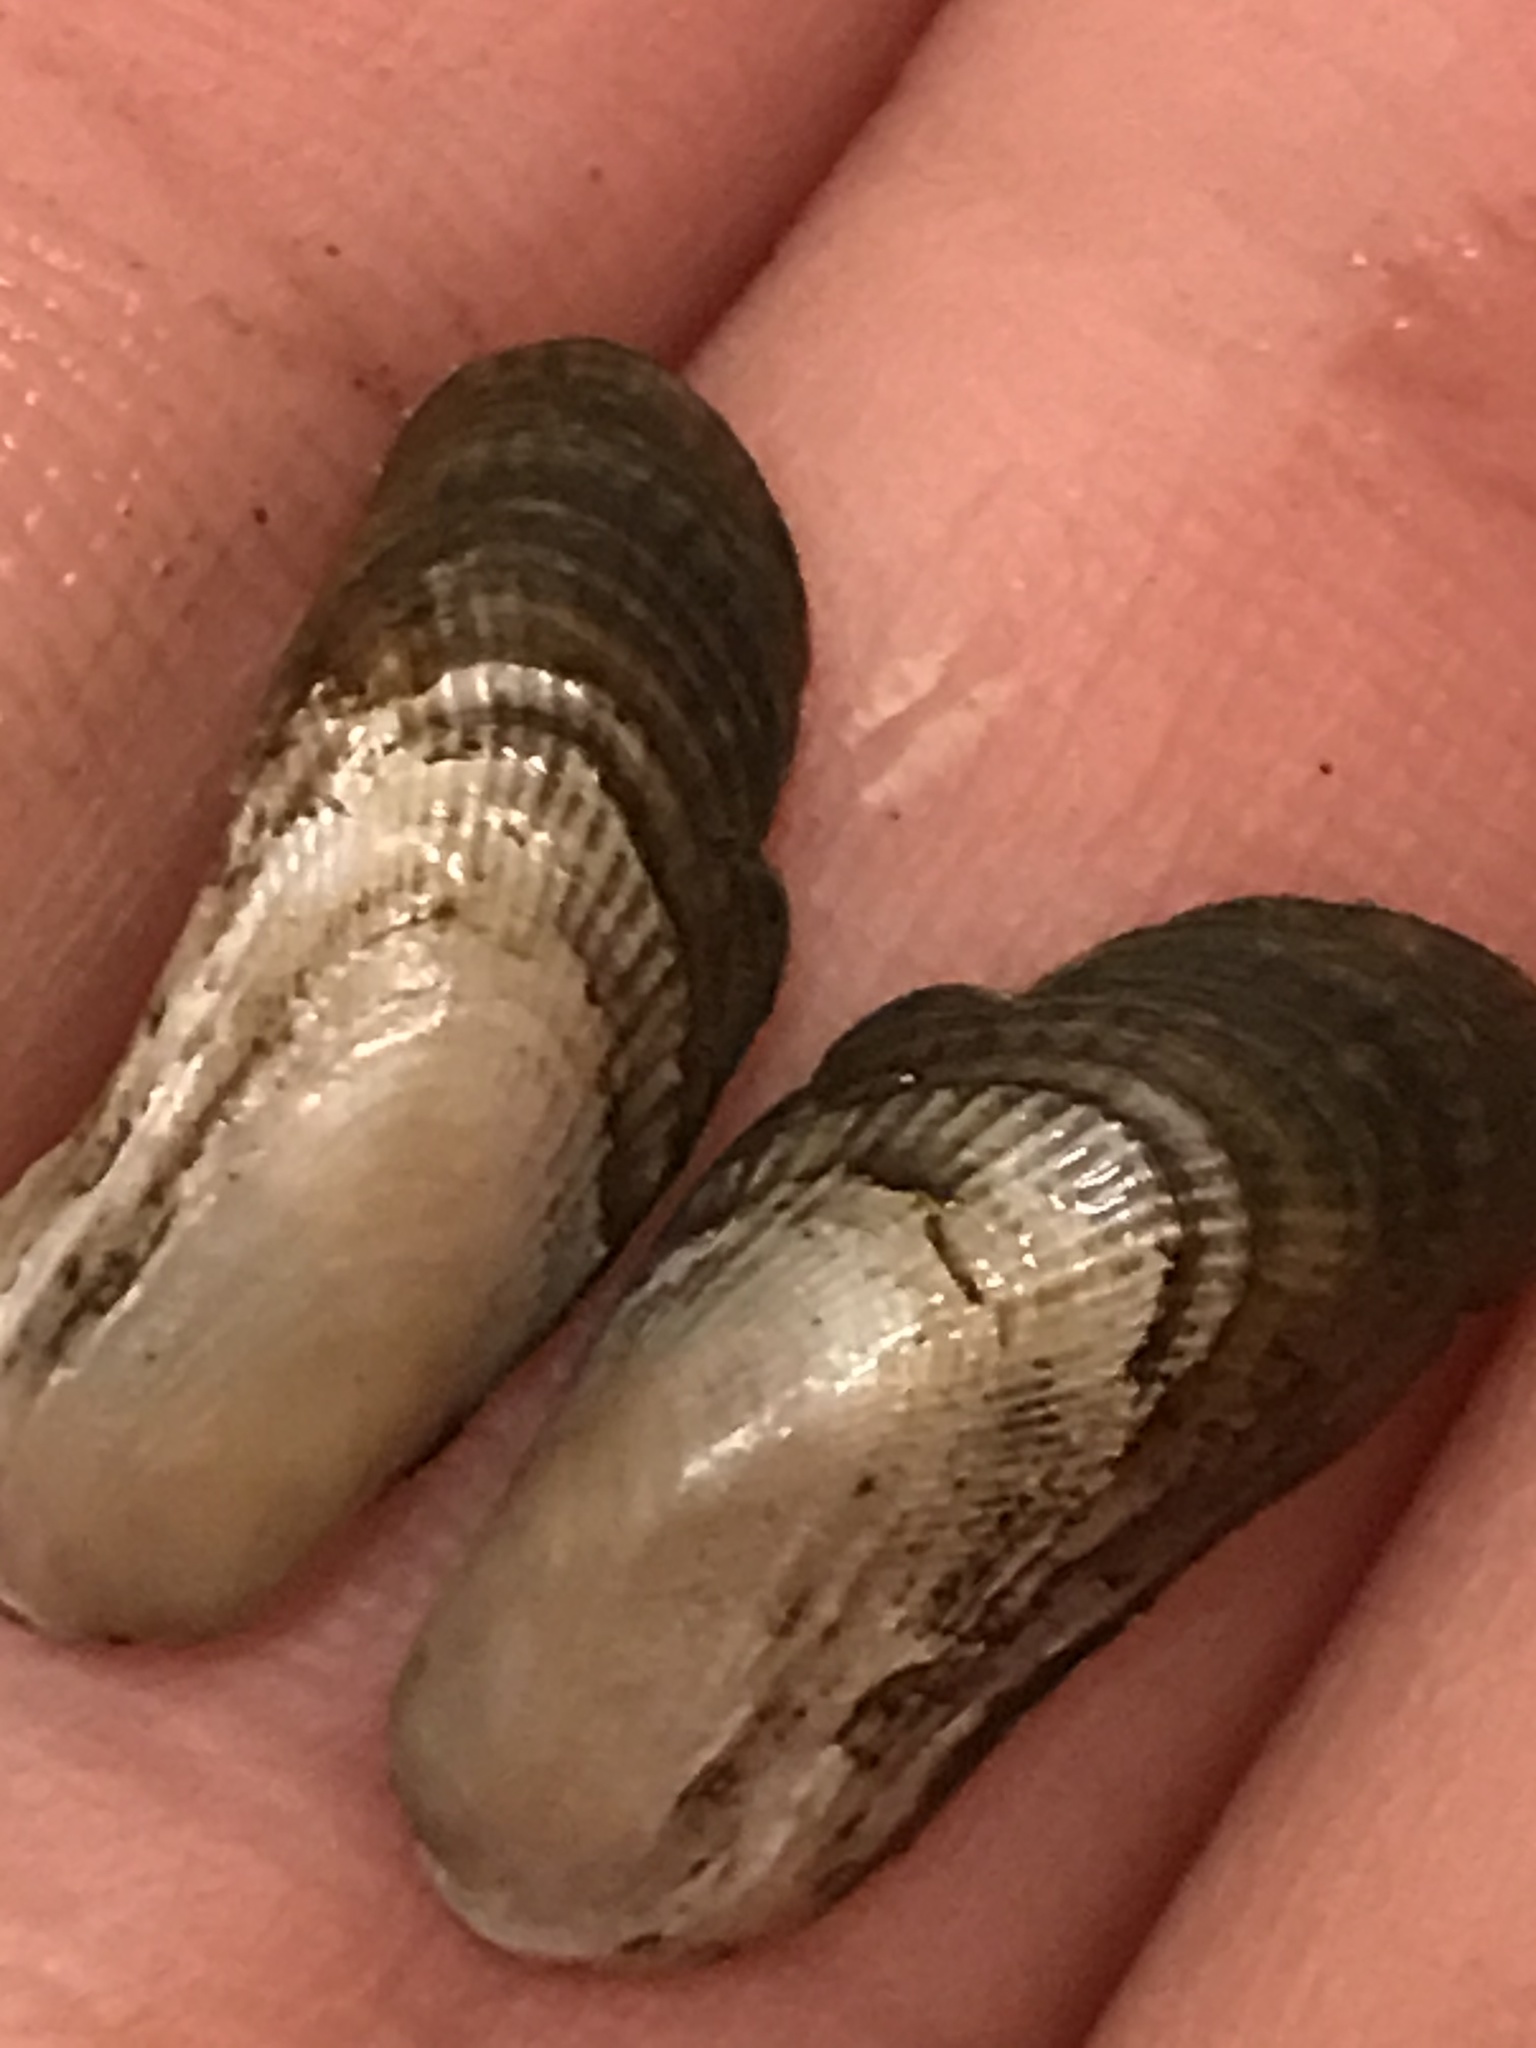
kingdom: Animalia
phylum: Mollusca
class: Bivalvia
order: Mytilida
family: Mytilidae
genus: Geukensia
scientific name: Geukensia demissa
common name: Ribbed mussel
